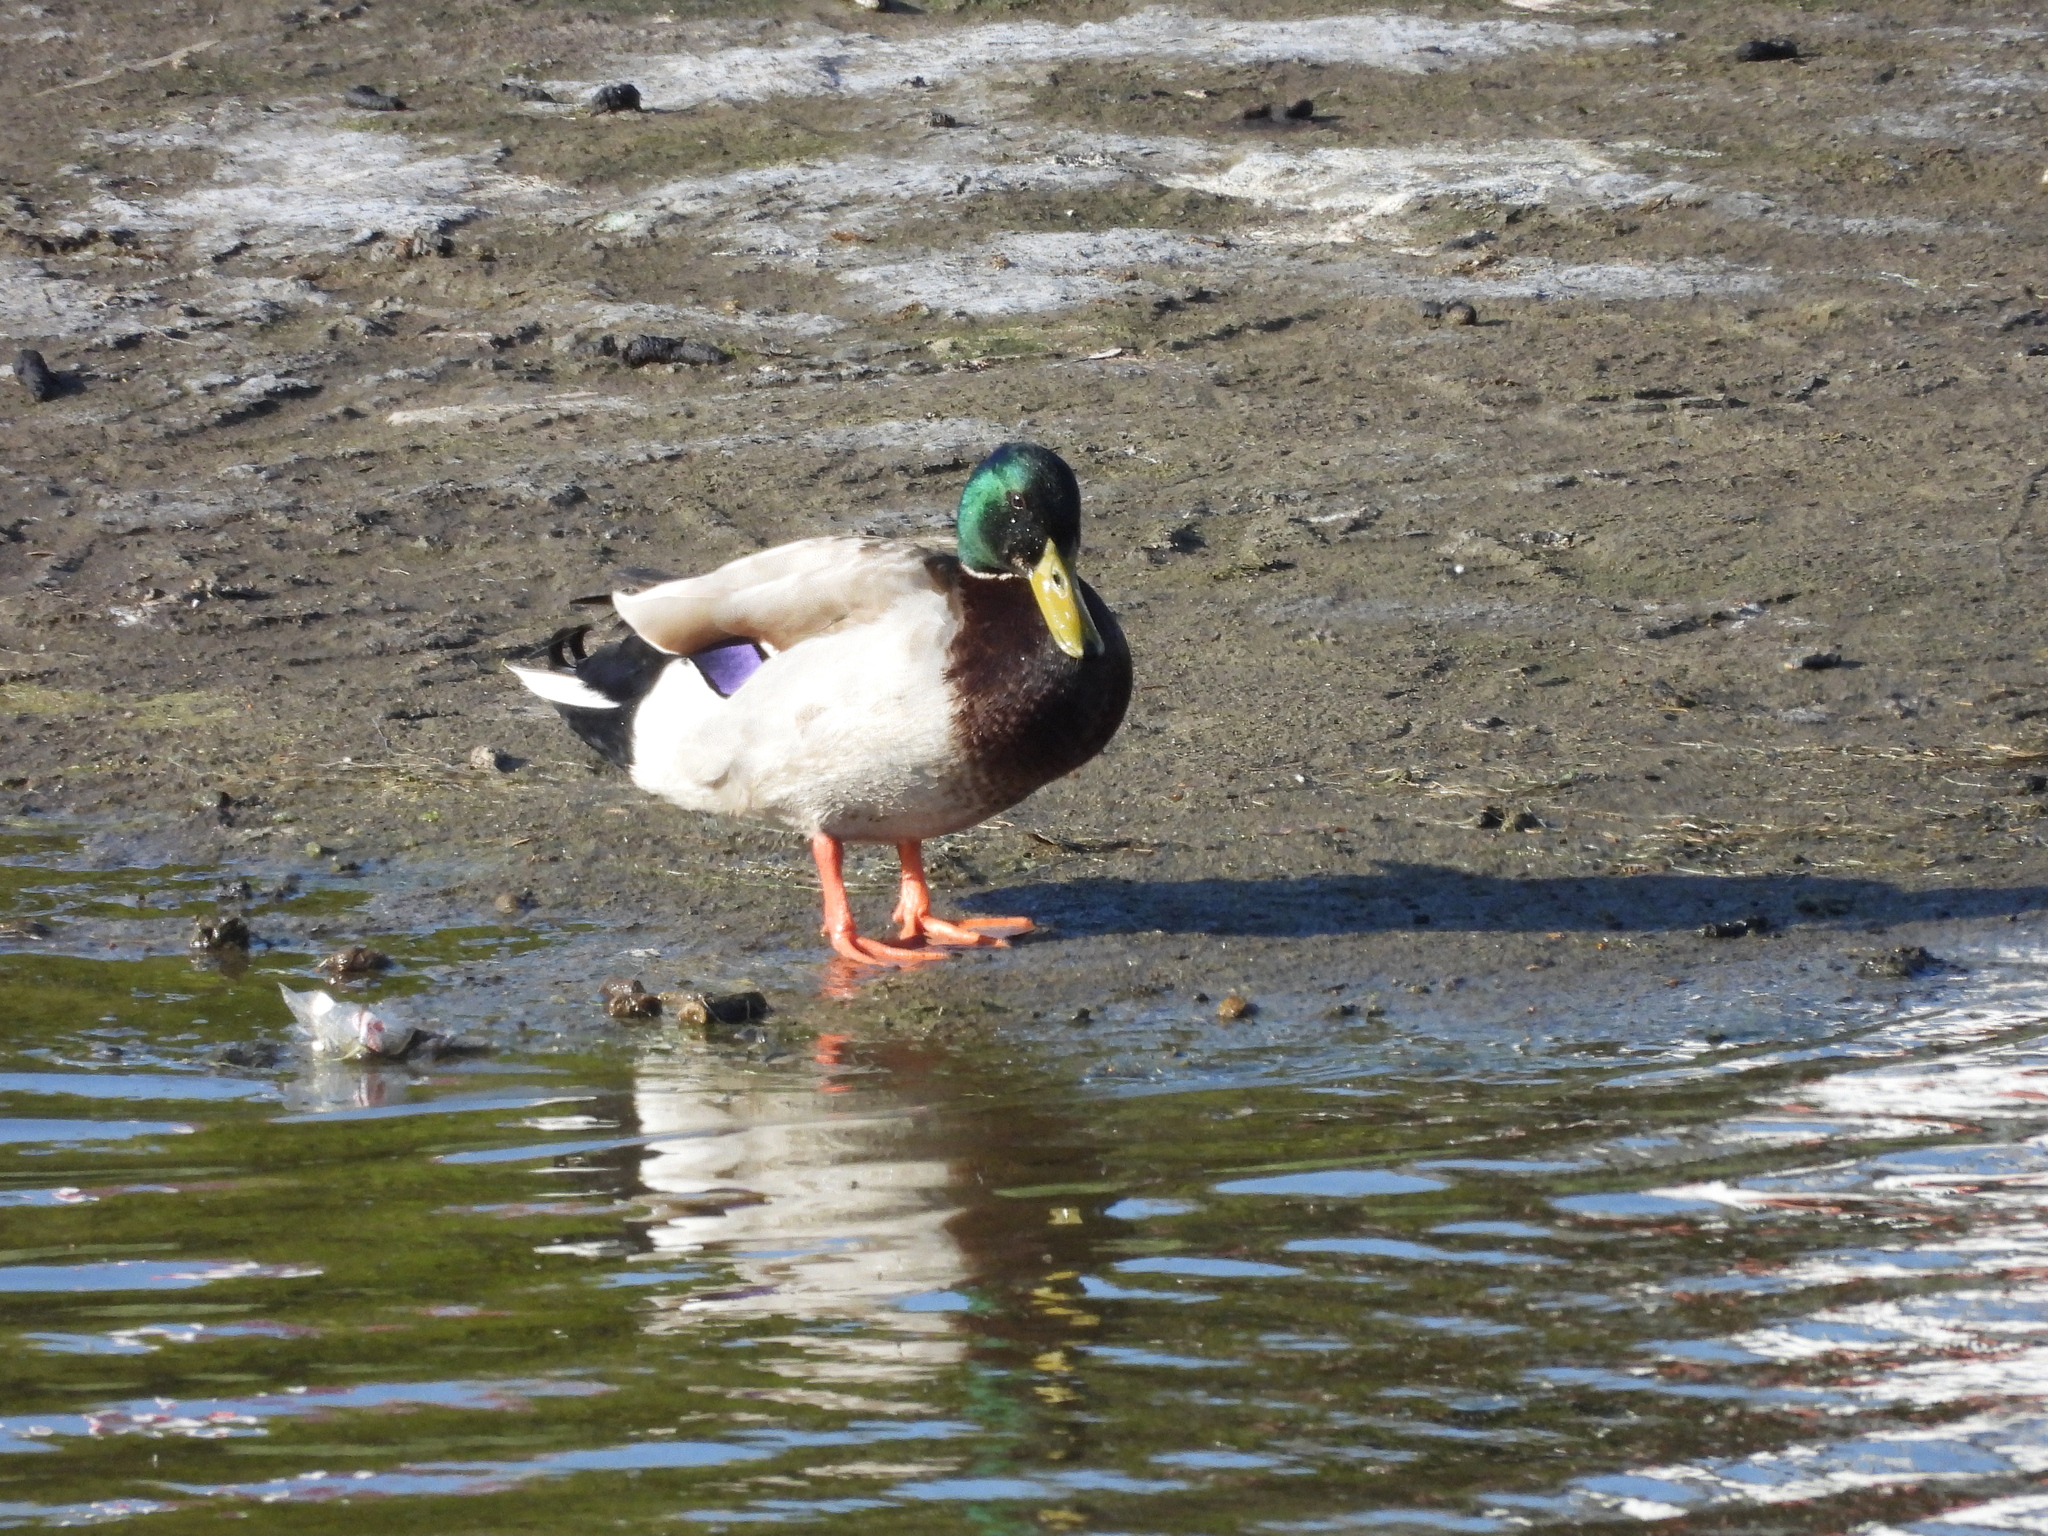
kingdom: Animalia
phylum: Chordata
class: Aves
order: Anseriformes
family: Anatidae
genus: Anas
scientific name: Anas platyrhynchos
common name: Mallard
